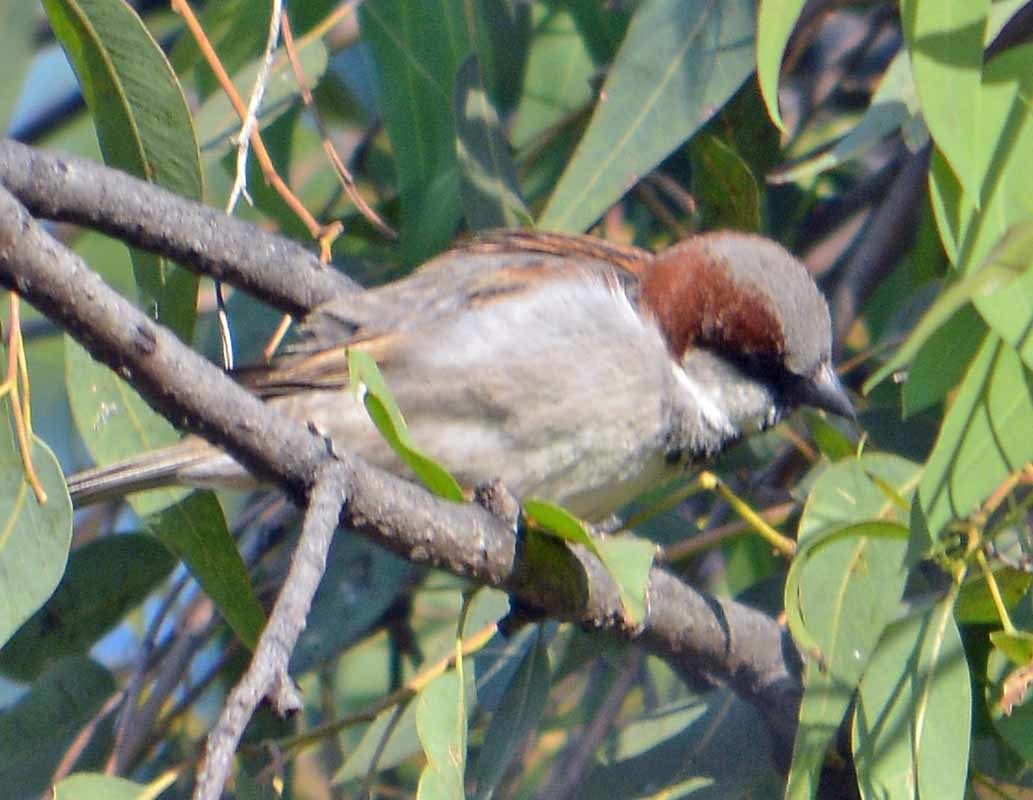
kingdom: Animalia
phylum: Chordata
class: Aves
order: Passeriformes
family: Passeridae
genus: Passer
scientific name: Passer domesticus
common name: House sparrow
